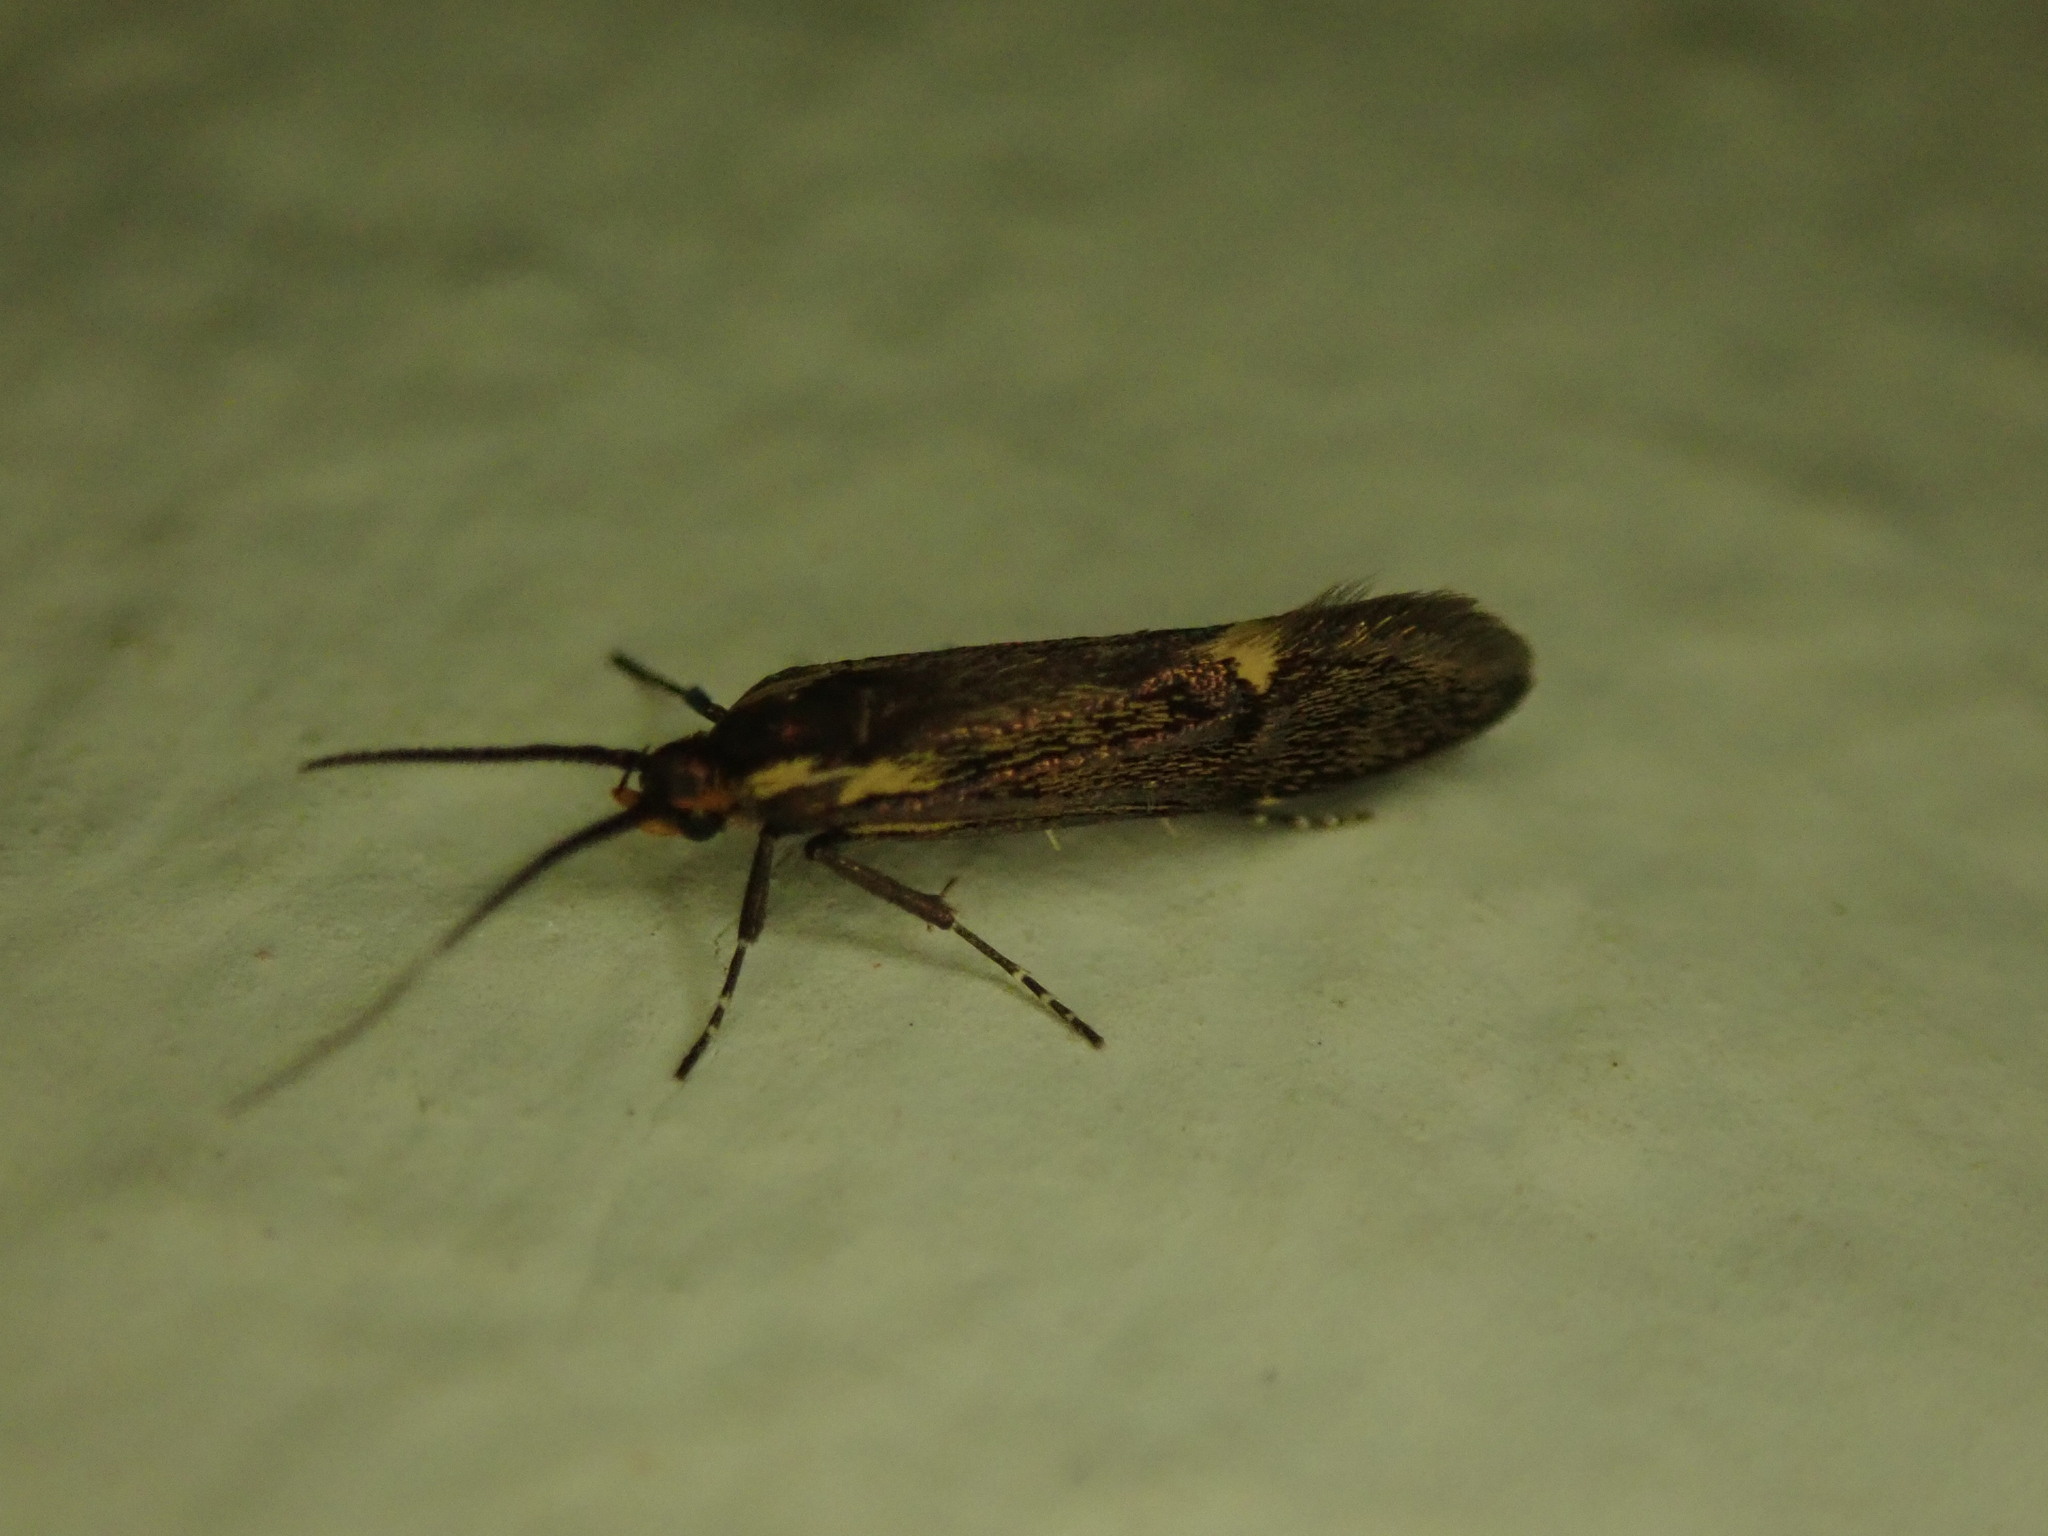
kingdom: Animalia
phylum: Arthropoda
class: Insecta
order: Lepidoptera
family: Oecophoridae
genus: Dafa
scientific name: Dafa Esperia sulphurella
